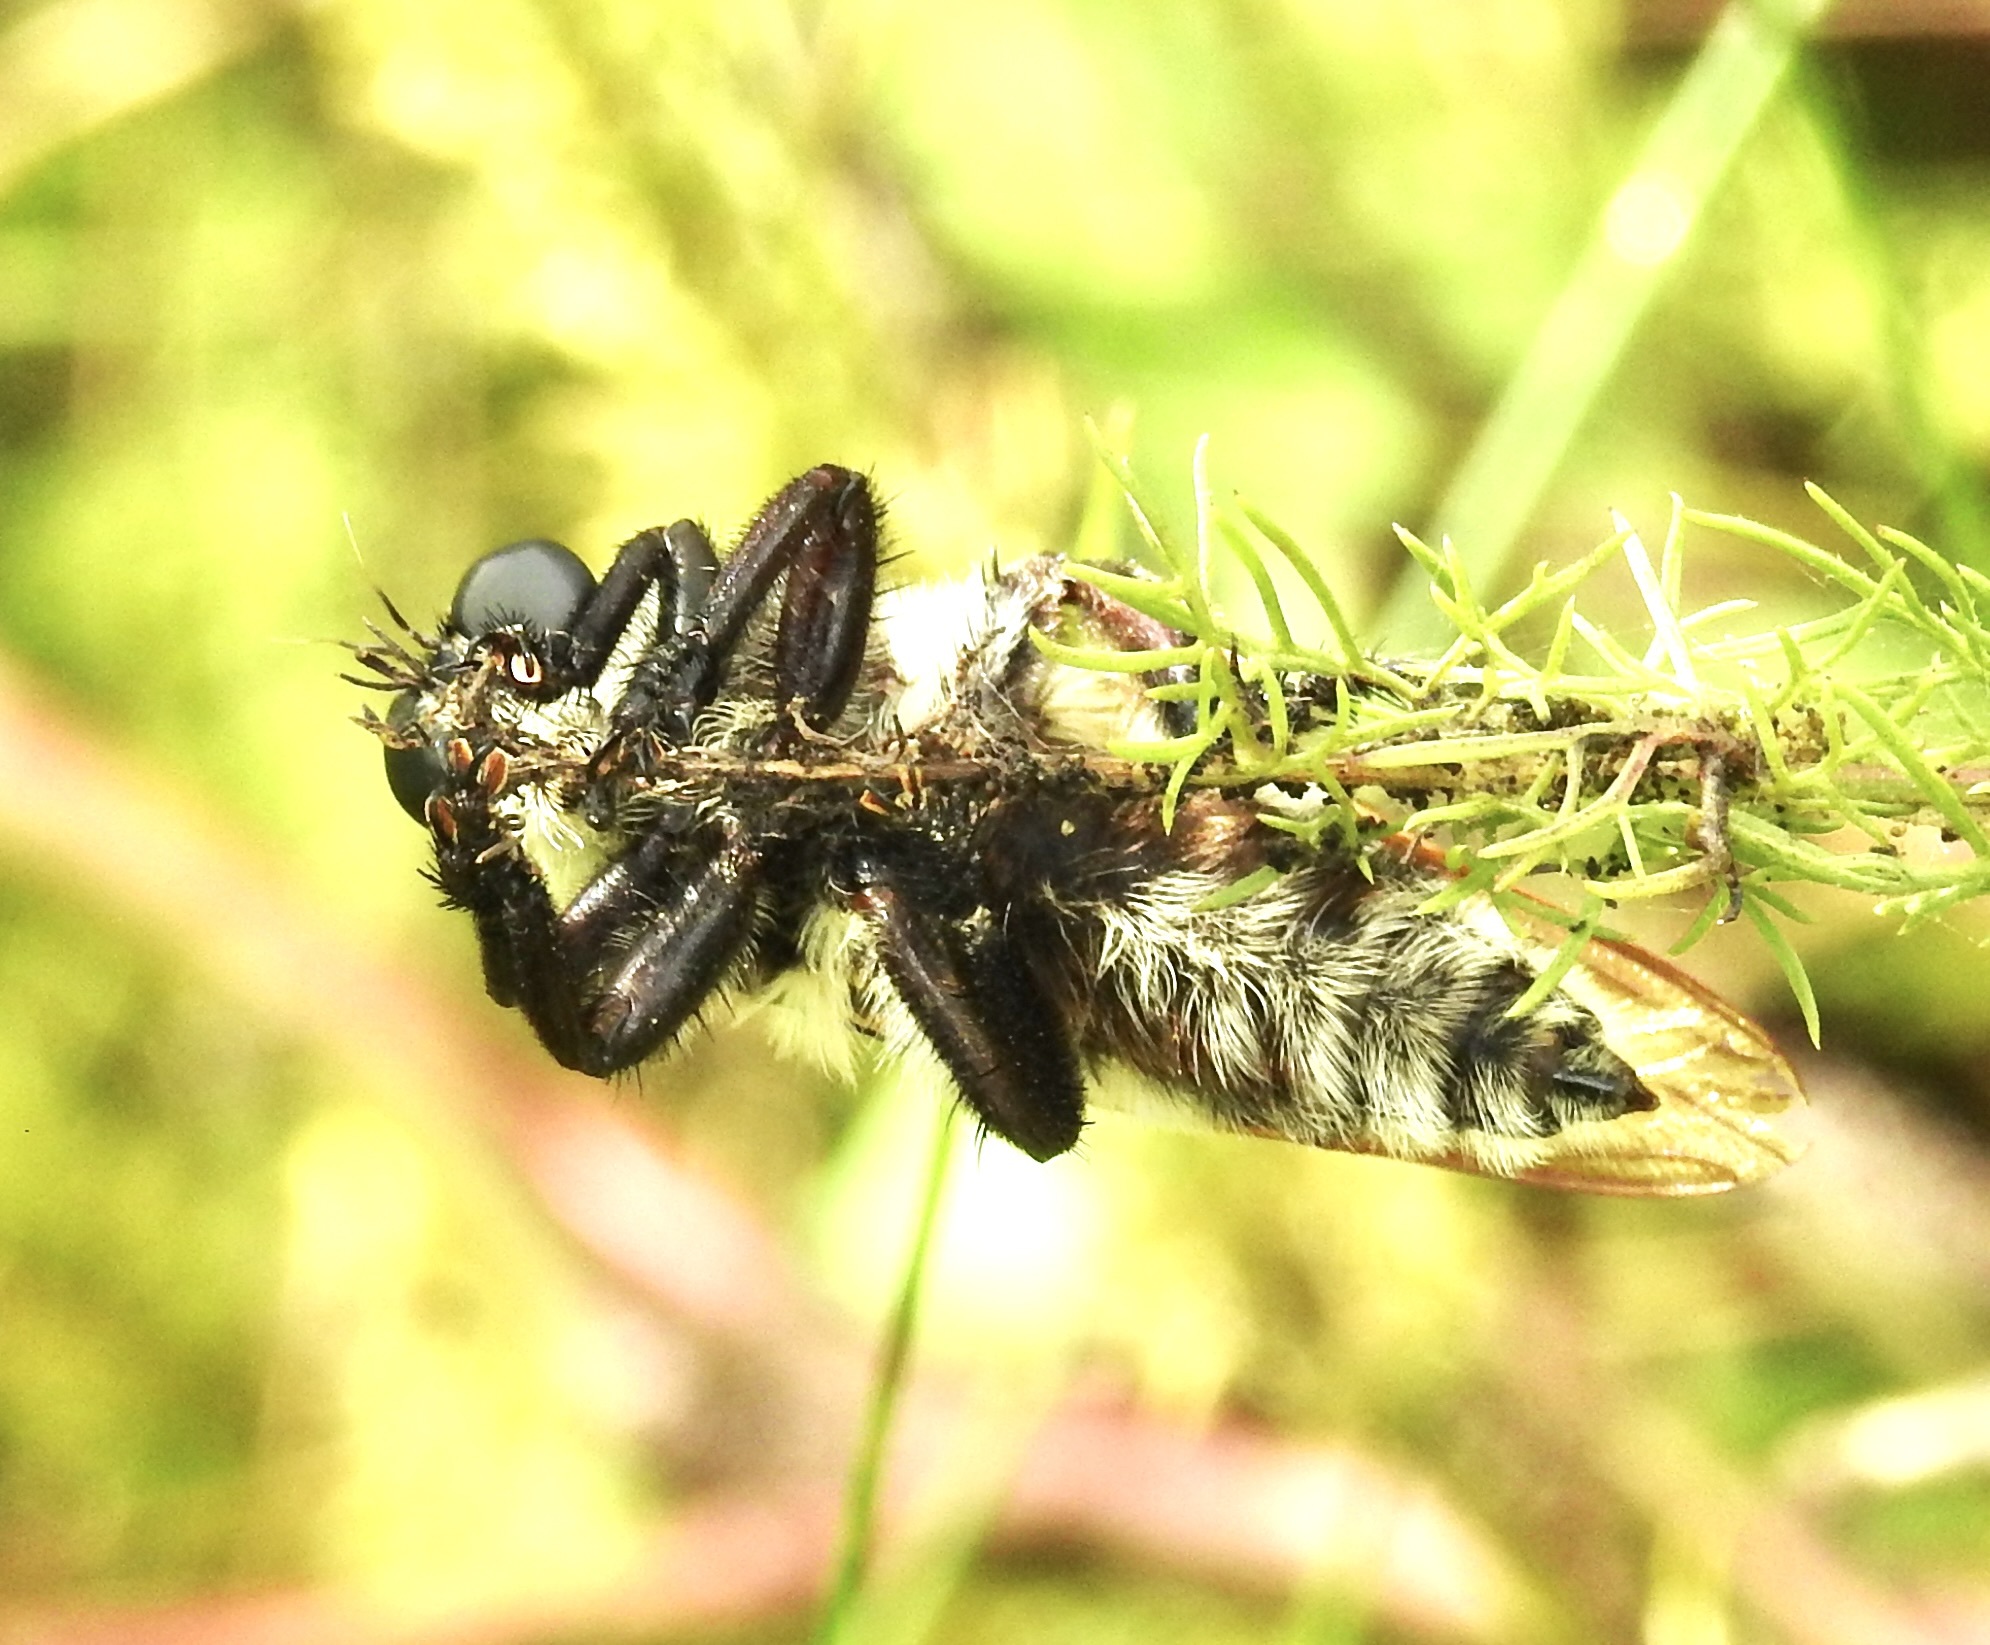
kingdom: Animalia
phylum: Arthropoda
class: Insecta
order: Diptera
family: Asilidae
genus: Mallophora
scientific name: Mallophora bomboides
